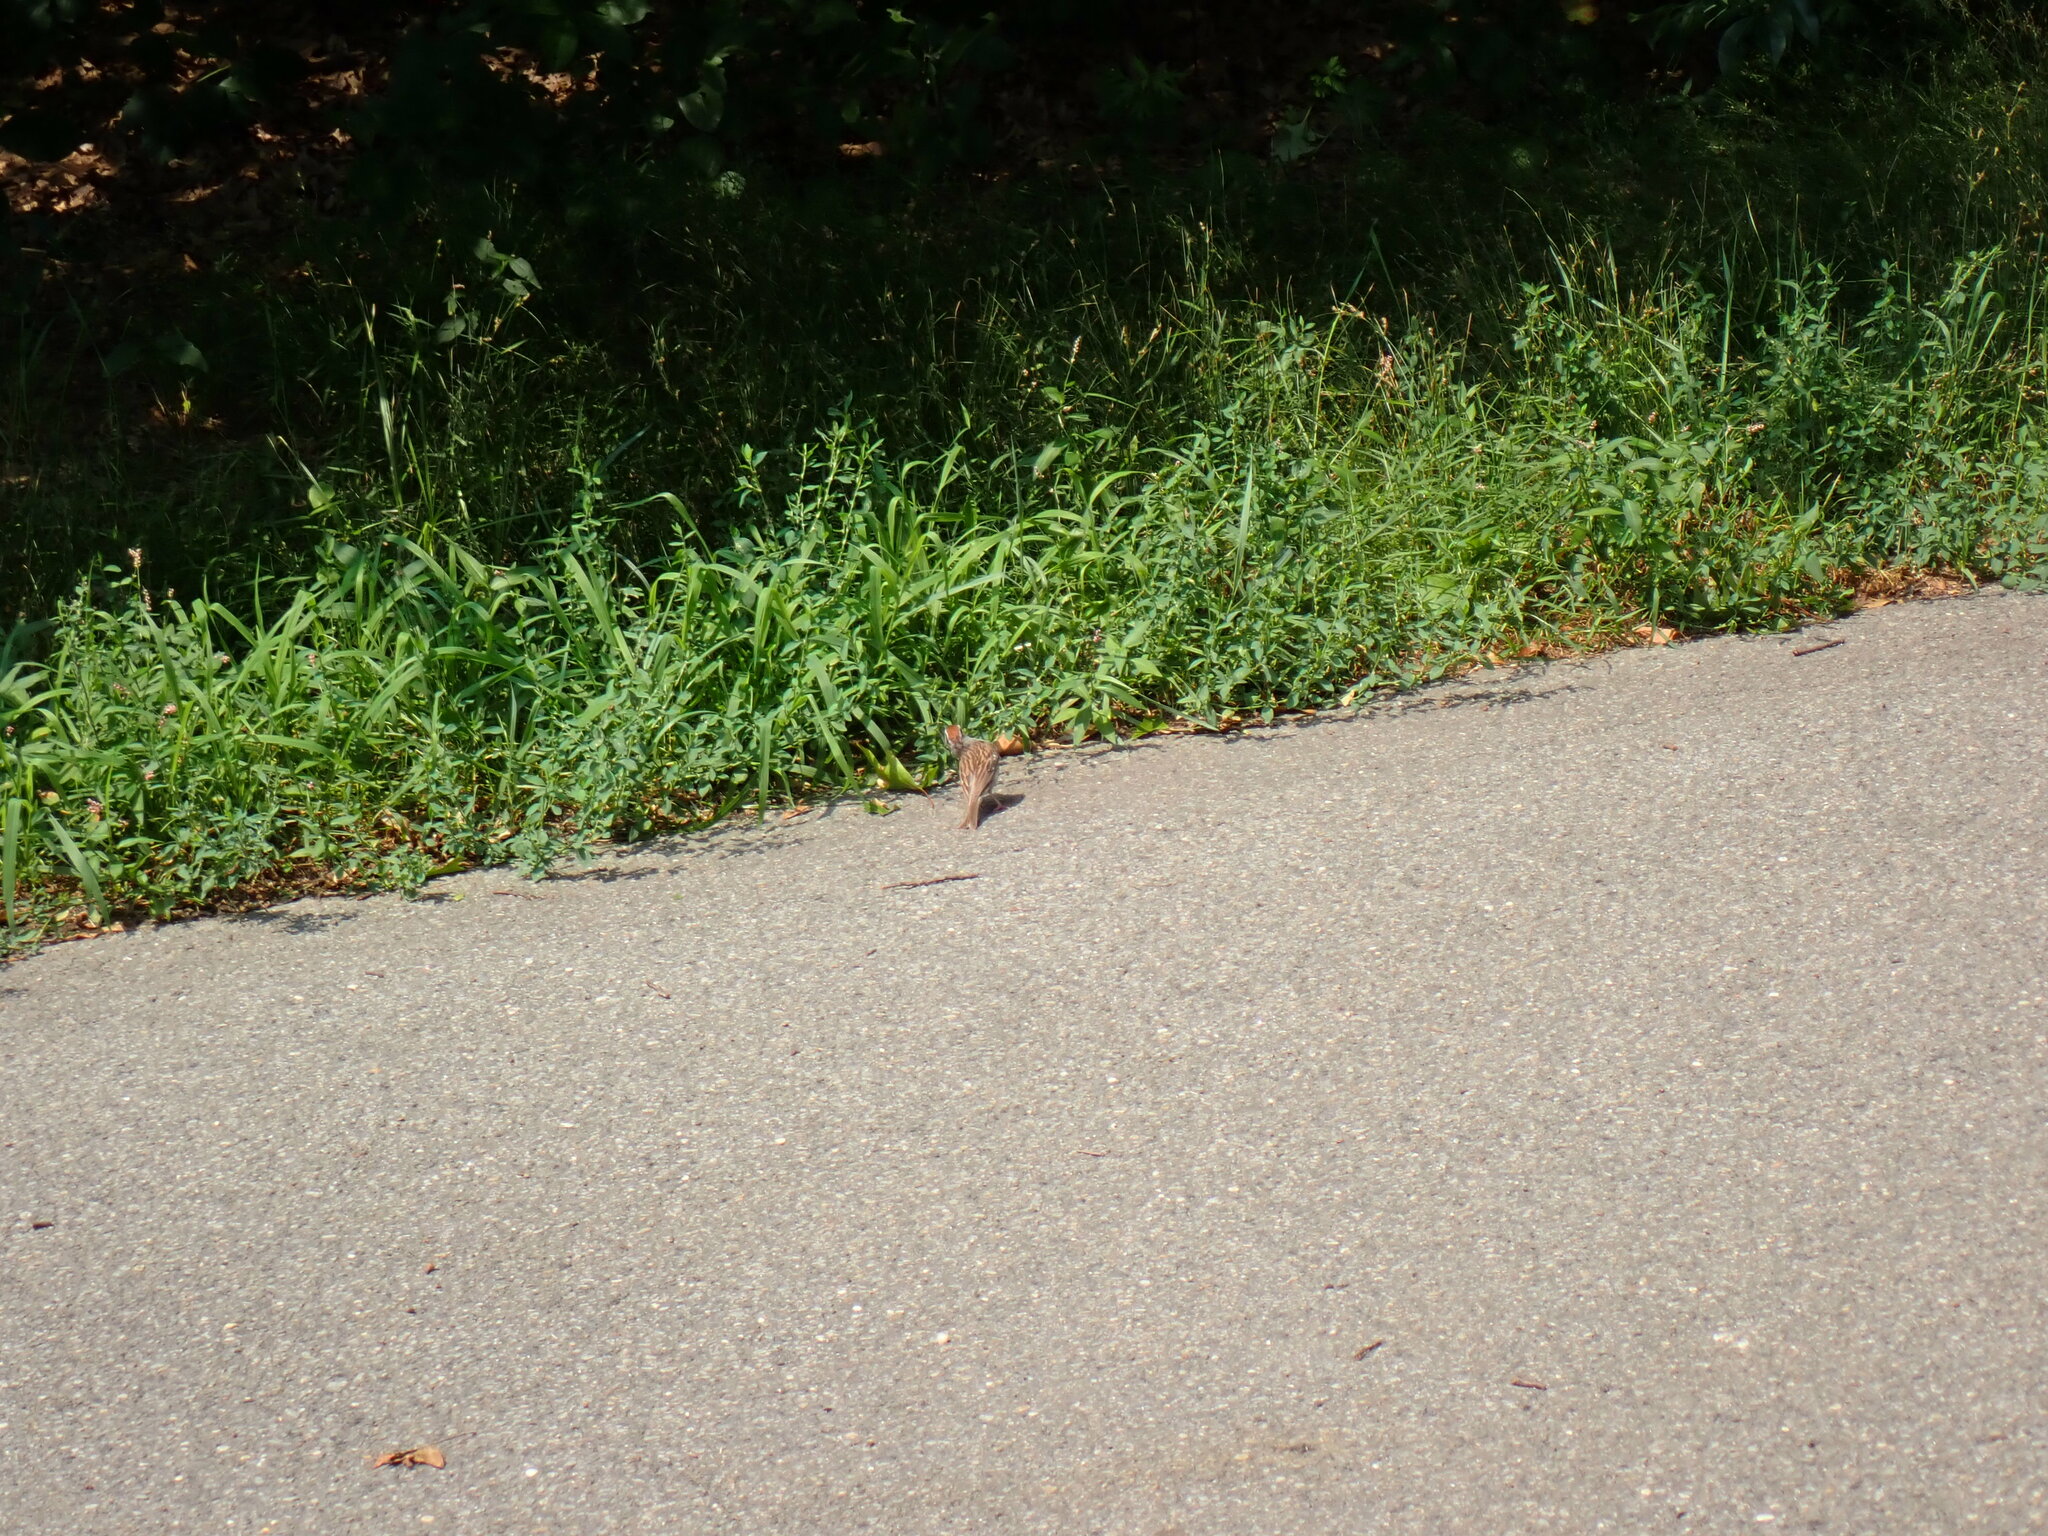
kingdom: Animalia
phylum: Chordata
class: Aves
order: Passeriformes
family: Passerellidae
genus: Spizella
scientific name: Spizella passerina
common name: Chipping sparrow
